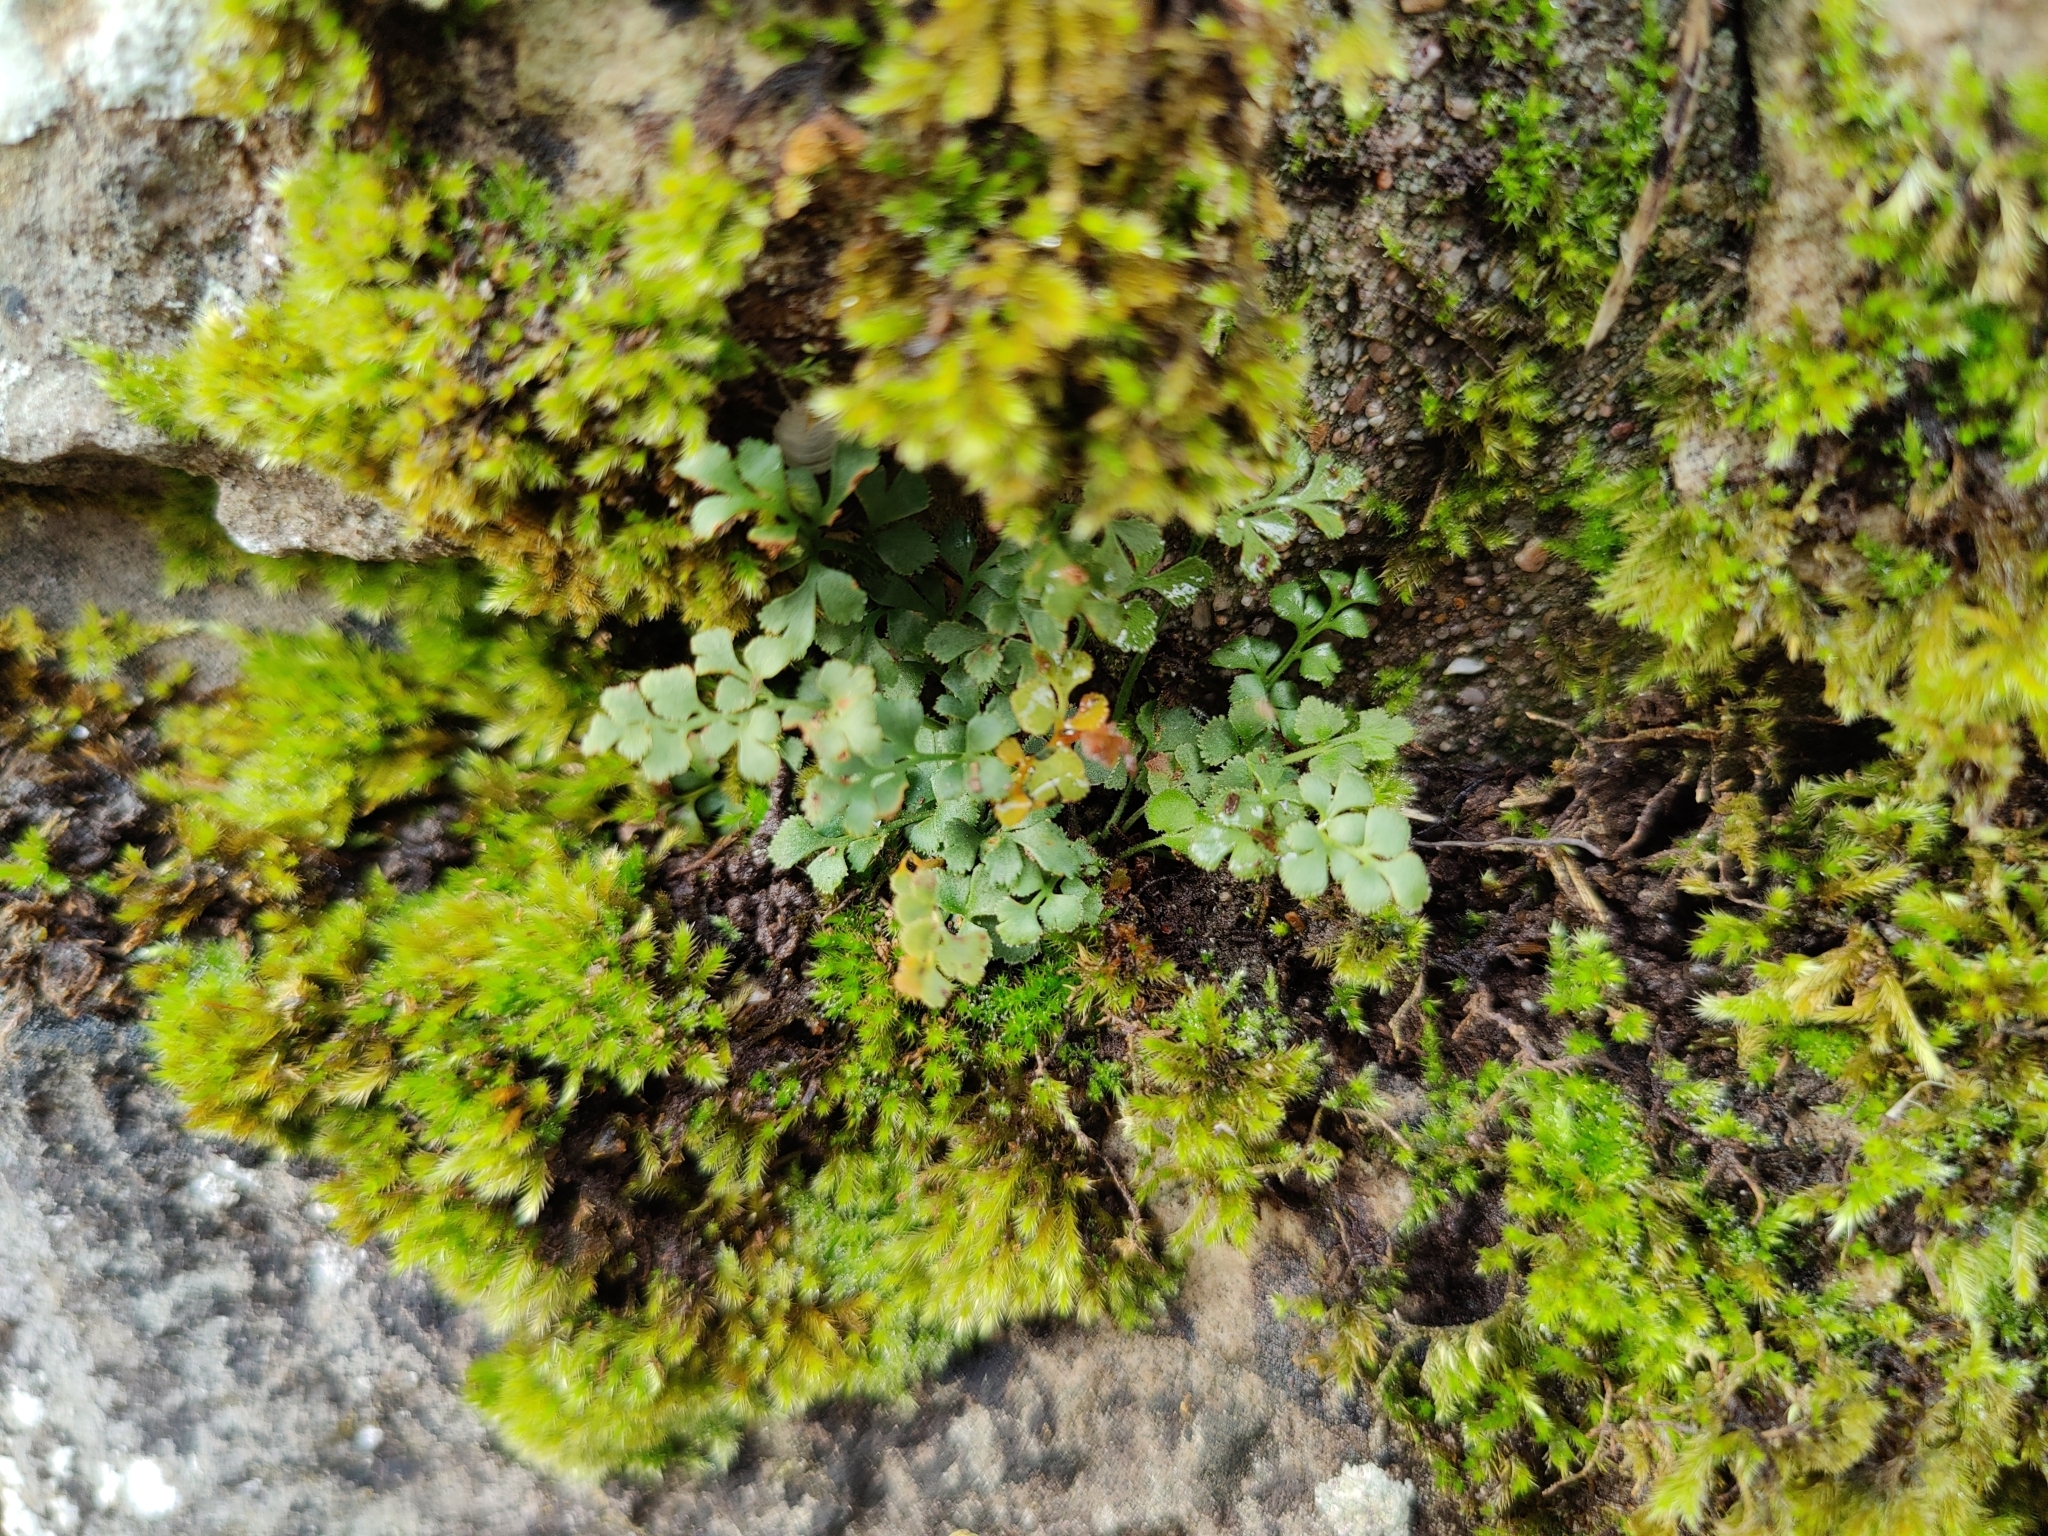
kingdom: Plantae
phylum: Tracheophyta
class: Polypodiopsida
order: Polypodiales
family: Aspleniaceae
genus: Asplenium
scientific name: Asplenium ruta-muraria
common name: Wall-rue
